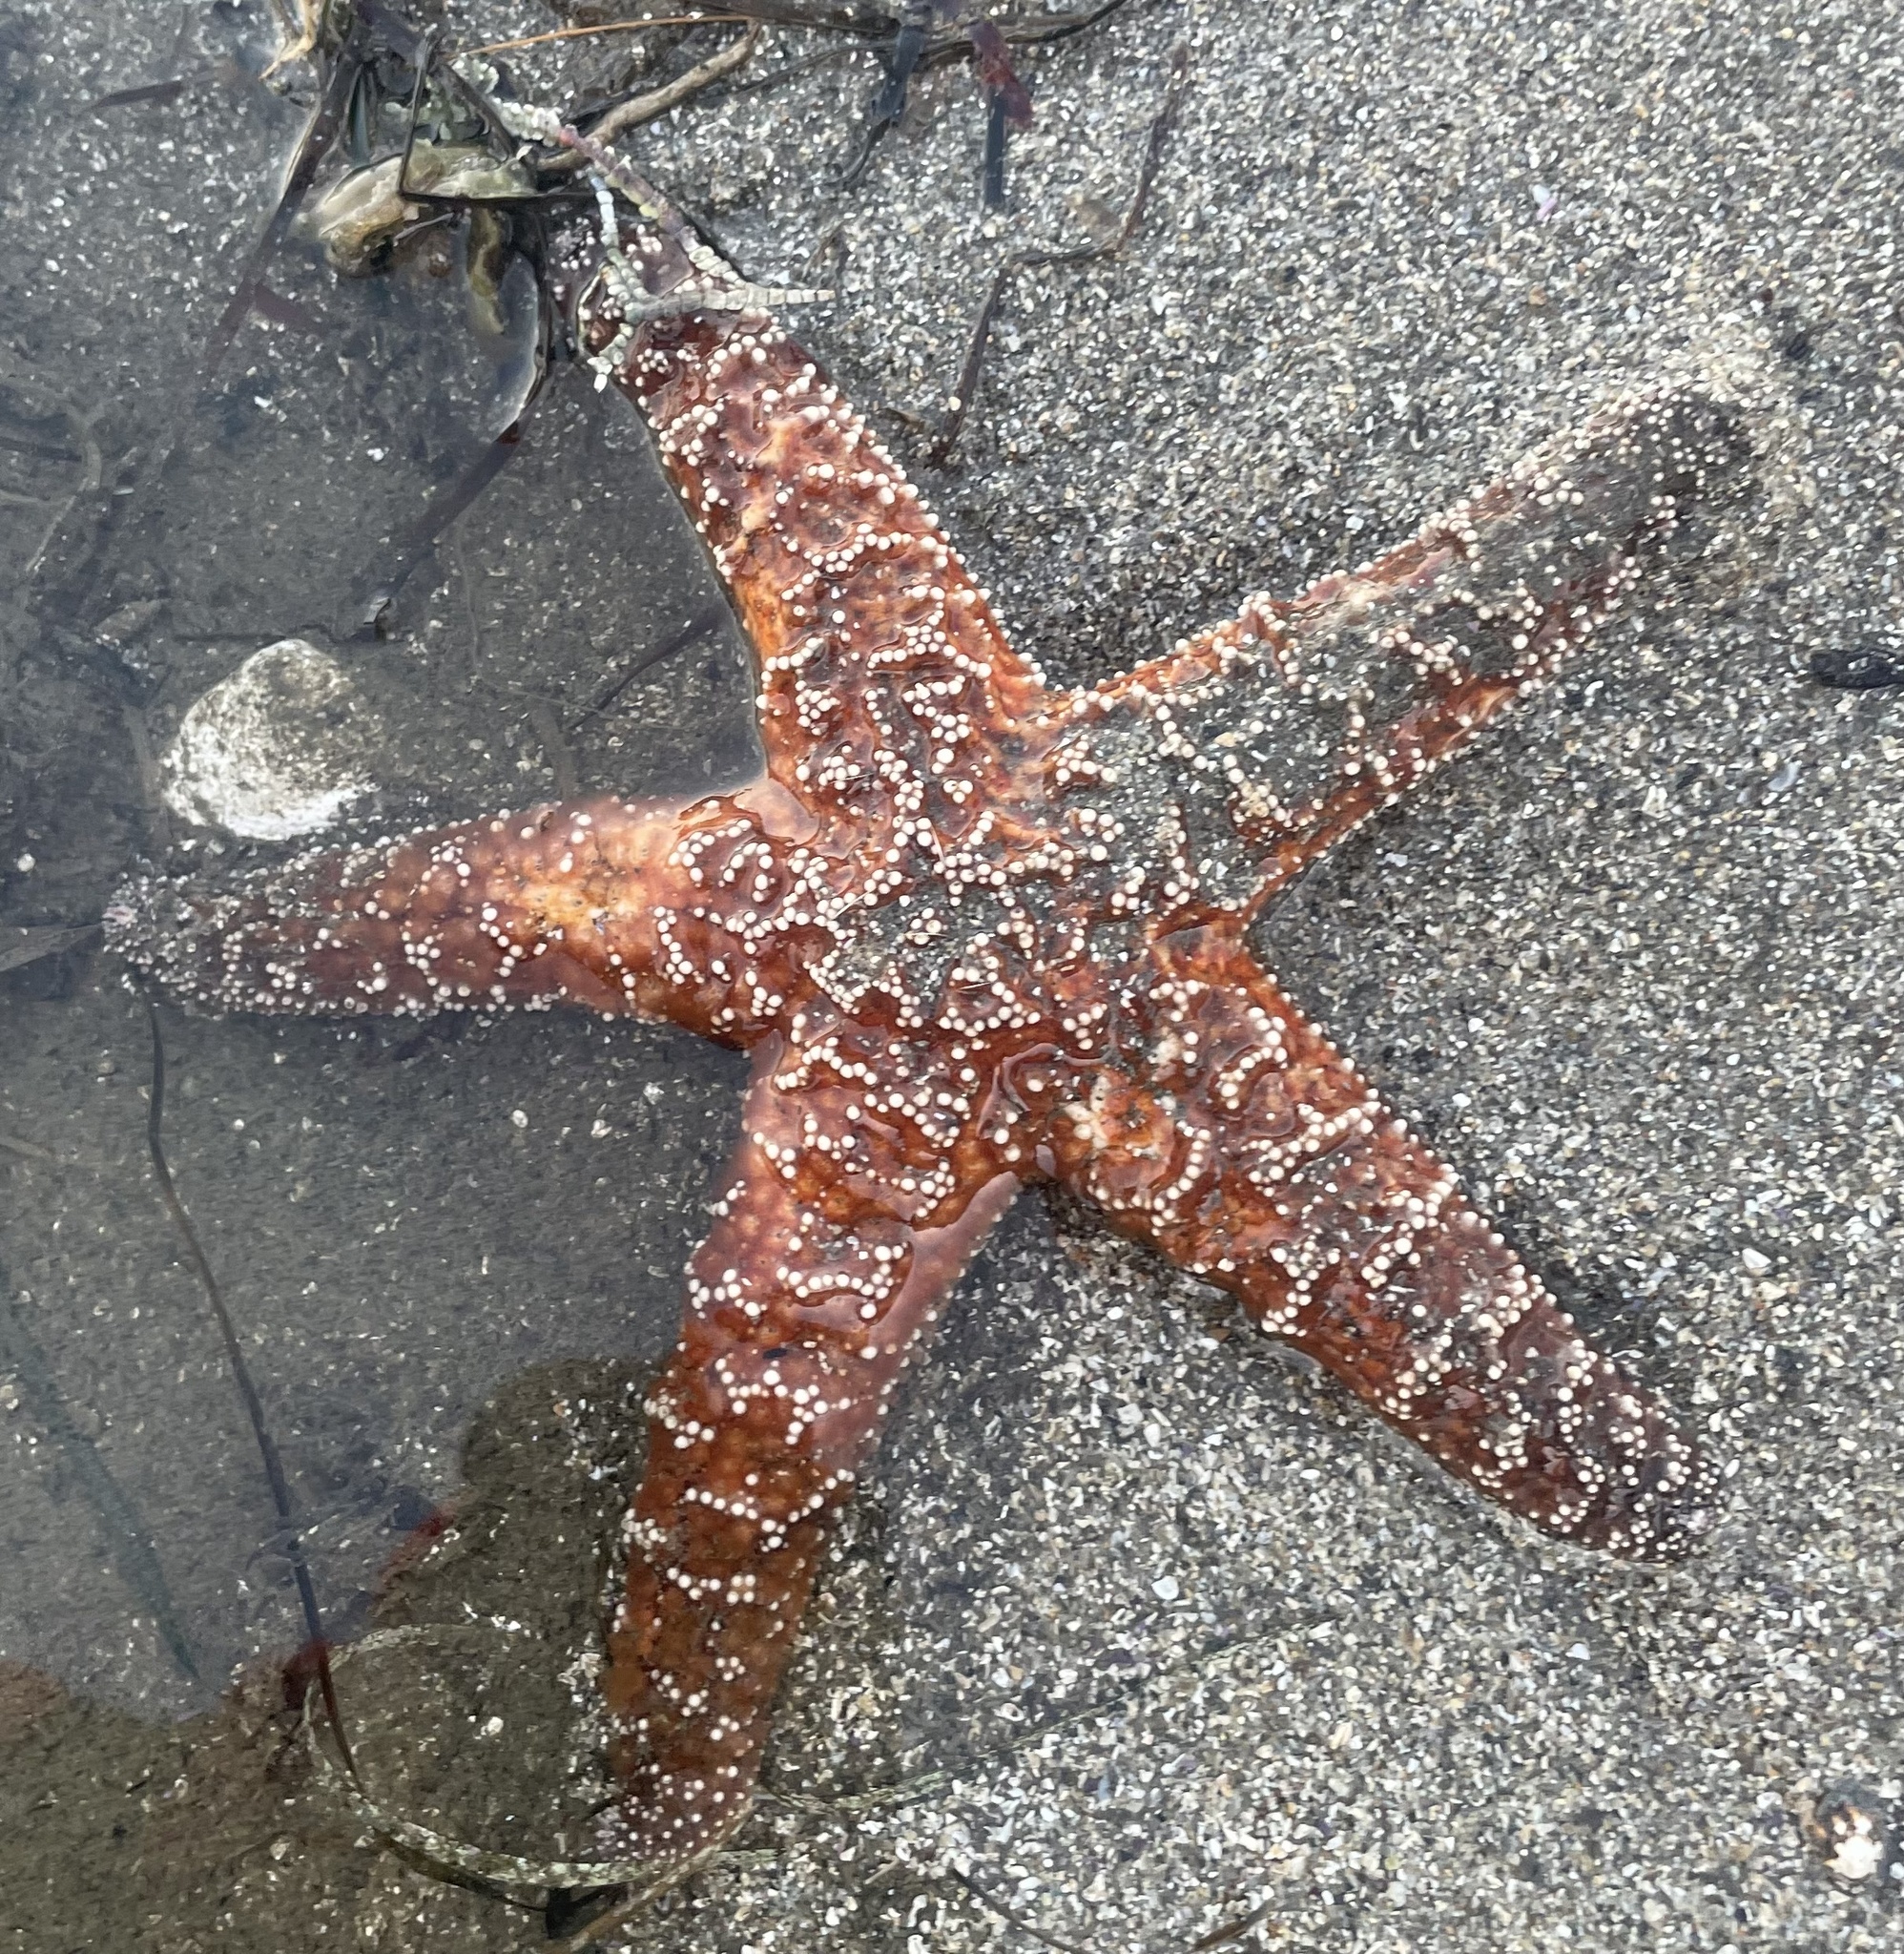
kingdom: Animalia
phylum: Echinodermata
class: Asteroidea
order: Forcipulatida
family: Asteriidae
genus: Pisaster
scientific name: Pisaster ochraceus
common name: Ochre stars
